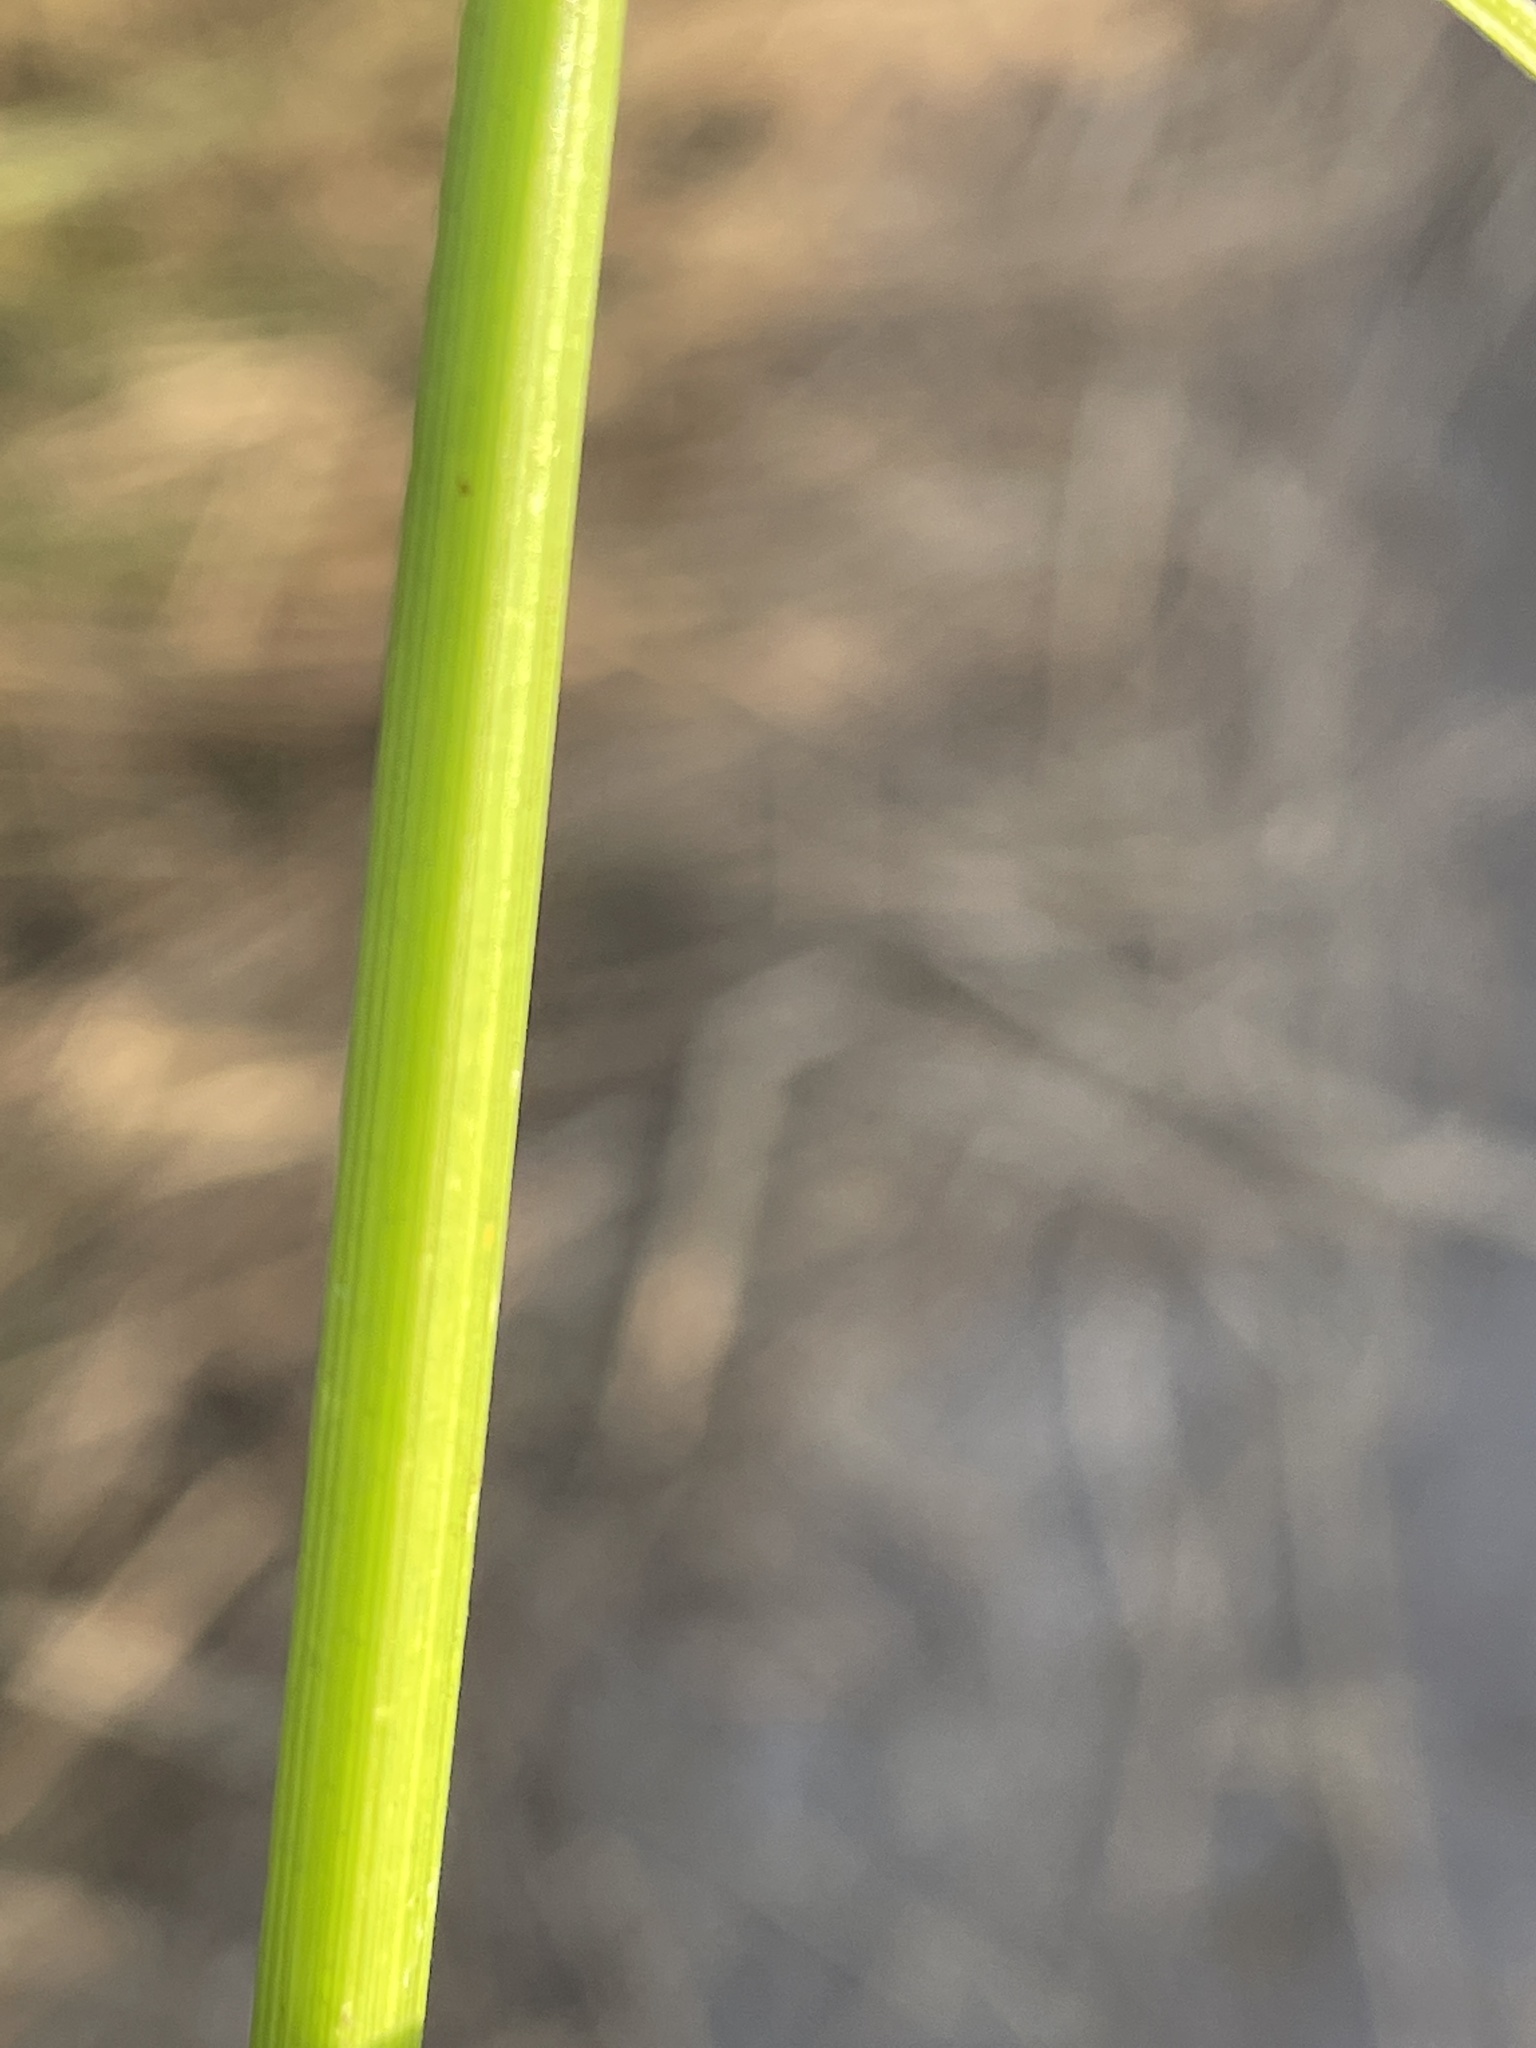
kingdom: Plantae
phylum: Tracheophyta
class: Liliopsida
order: Poales
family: Cyperaceae
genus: Cyperus
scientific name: Cyperus pseudokyllingioides
